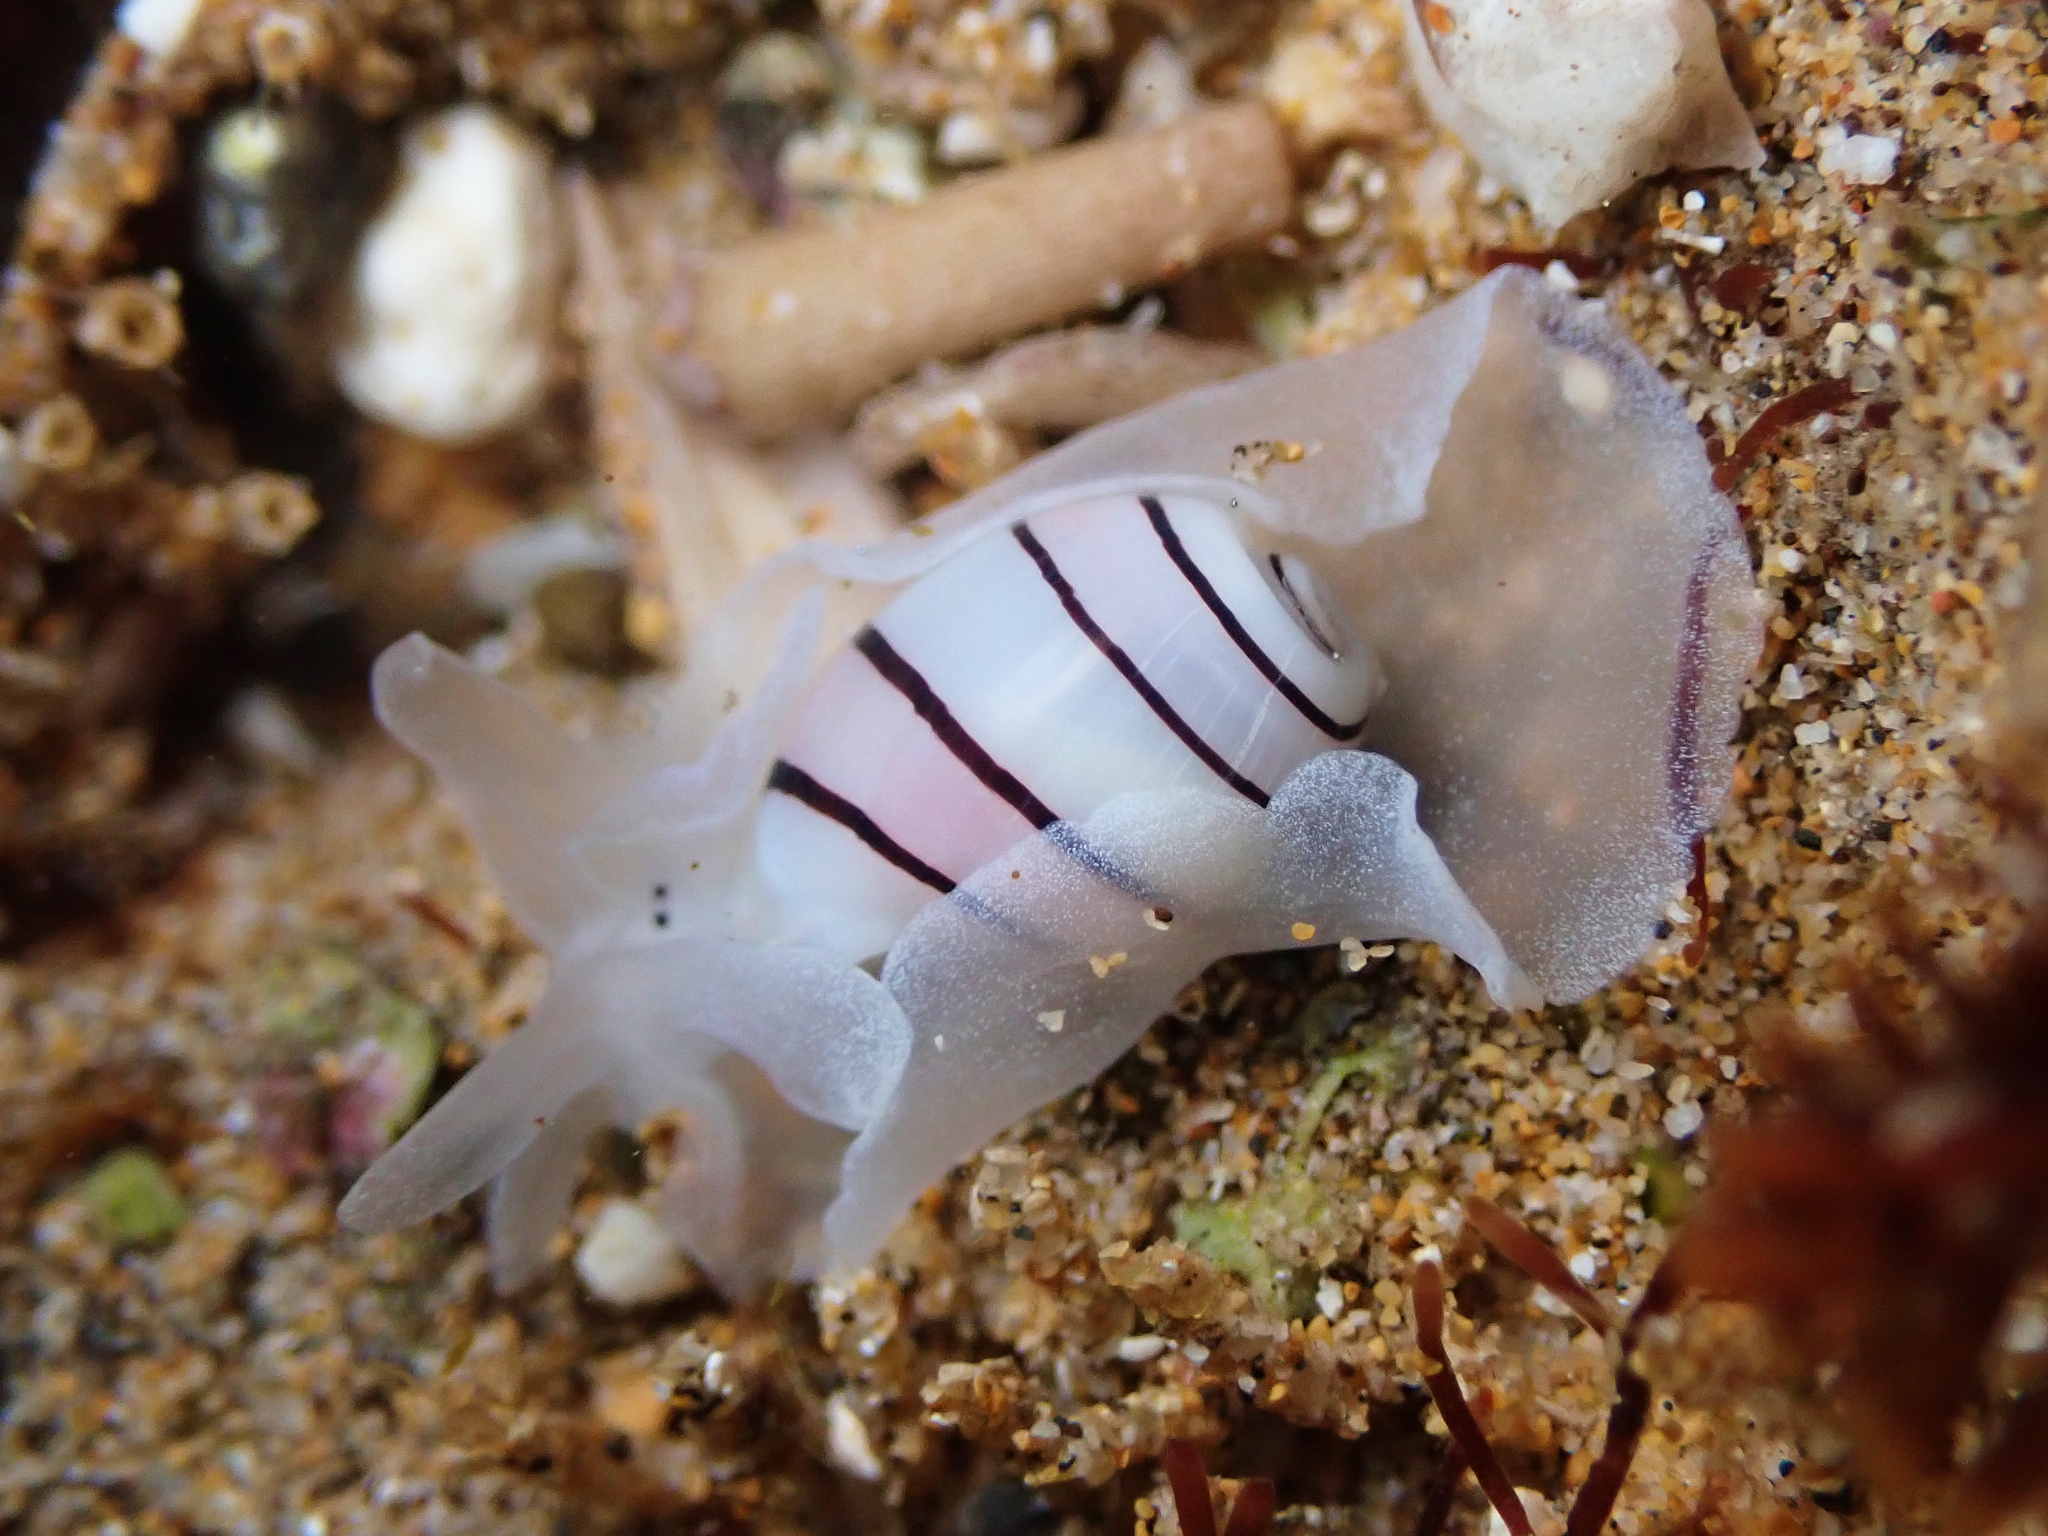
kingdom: Animalia
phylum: Mollusca
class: Gastropoda
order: Cephalaspidea
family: Aplustridae
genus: Aplustrum
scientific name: Aplustrum amplustre
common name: Royal paperbubble
